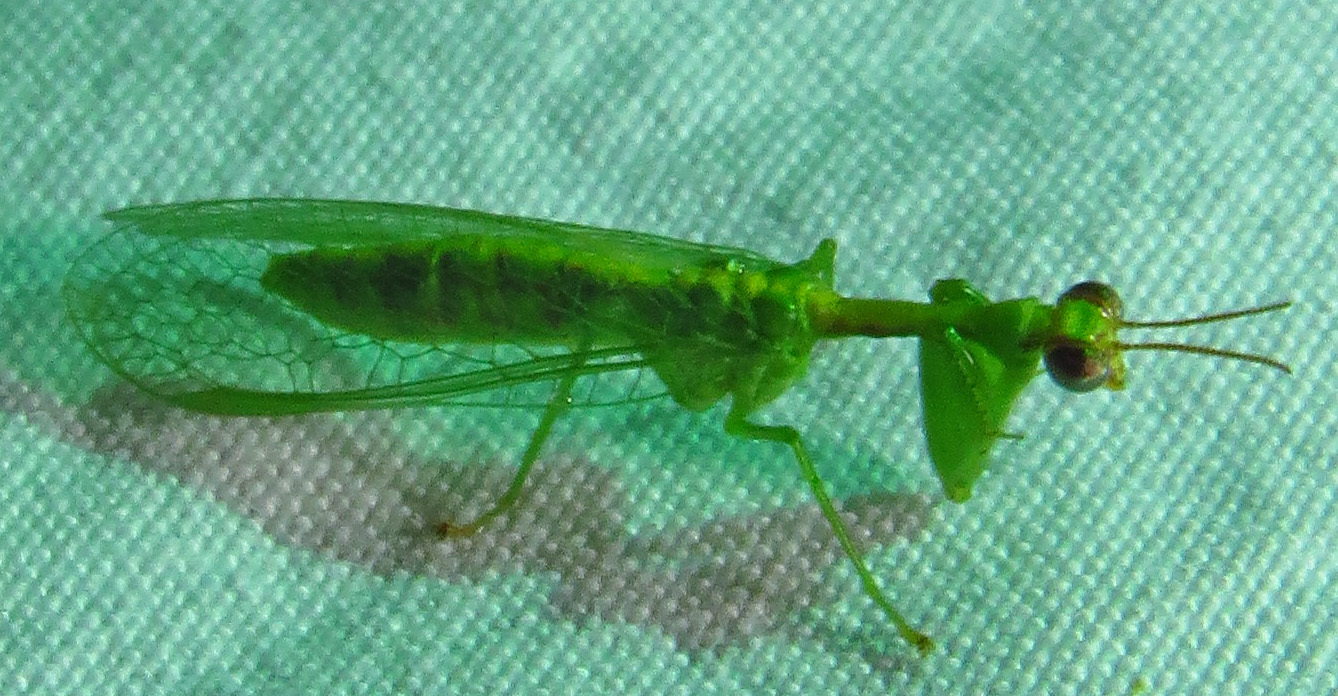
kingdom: Animalia
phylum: Arthropoda
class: Insecta
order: Neuroptera
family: Mantispidae
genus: Zeugomantispa
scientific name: Zeugomantispa minuta
